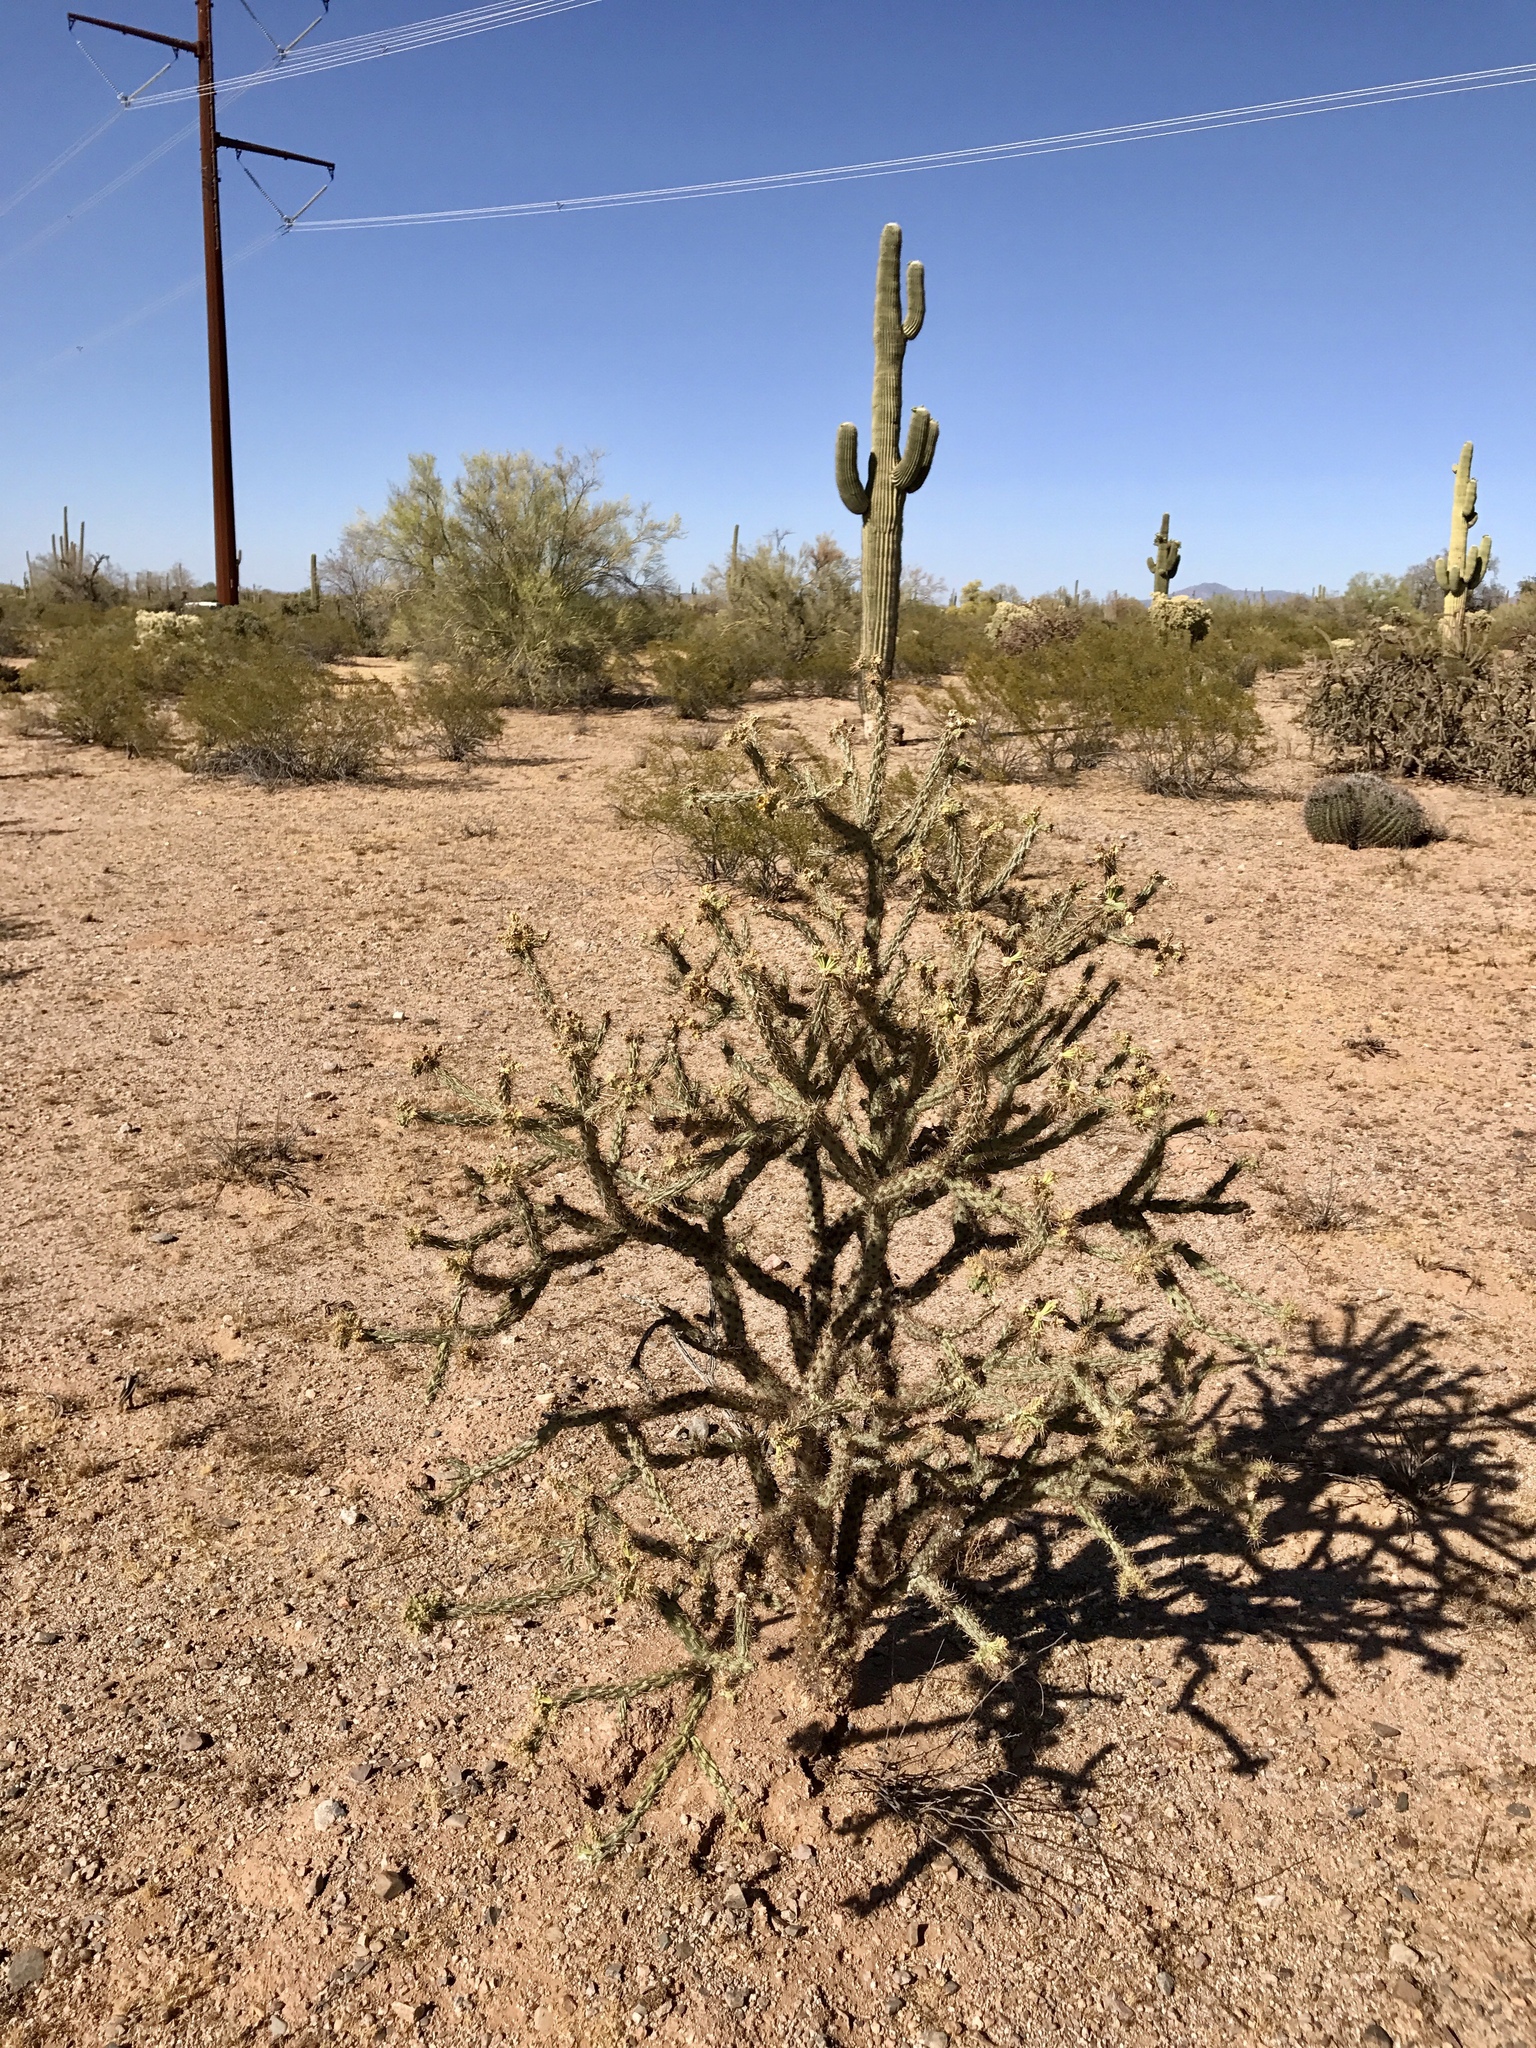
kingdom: Plantae
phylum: Tracheophyta
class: Magnoliopsida
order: Caryophyllales
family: Cactaceae
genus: Cylindropuntia
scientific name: Cylindropuntia acanthocarpa
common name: Buckhorn cholla
